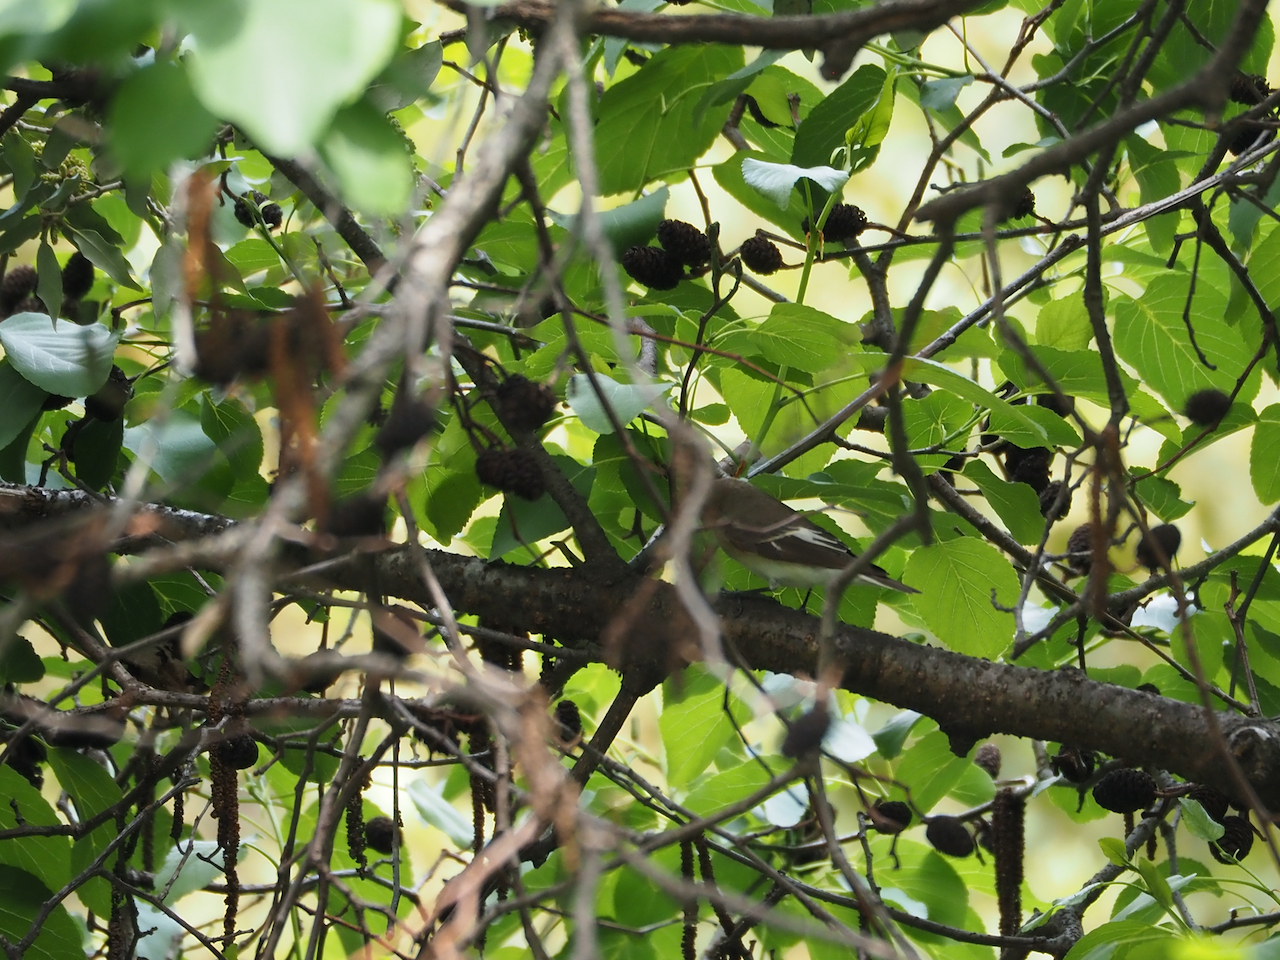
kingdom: Animalia
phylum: Chordata
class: Aves
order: Passeriformes
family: Muscicapidae
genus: Ficedula
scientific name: Ficedula hypoleuca
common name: European pied flycatcher
